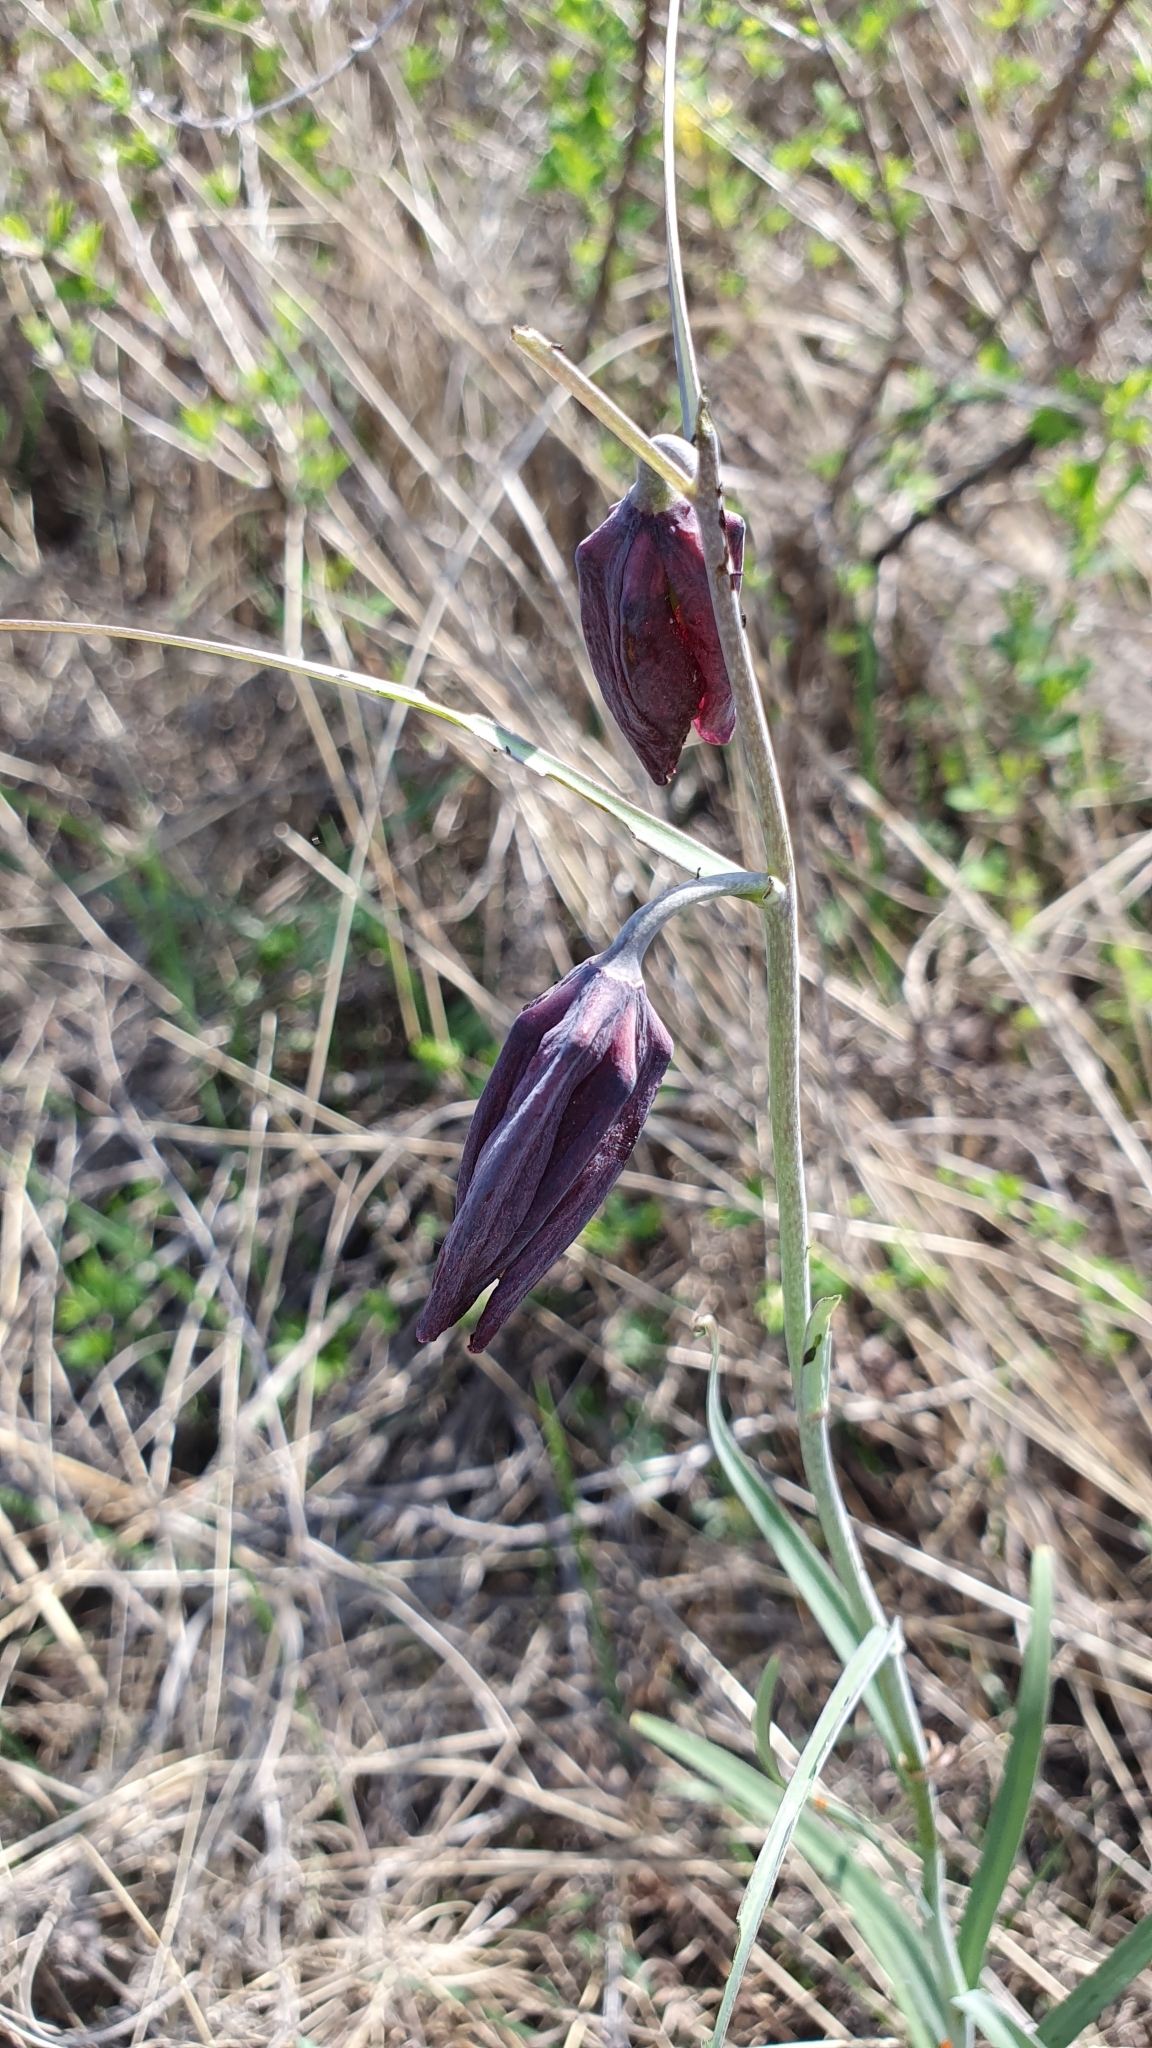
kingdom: Plantae
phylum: Tracheophyta
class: Liliopsida
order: Liliales
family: Liliaceae
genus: Fritillaria
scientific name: Fritillaria ruthenica
